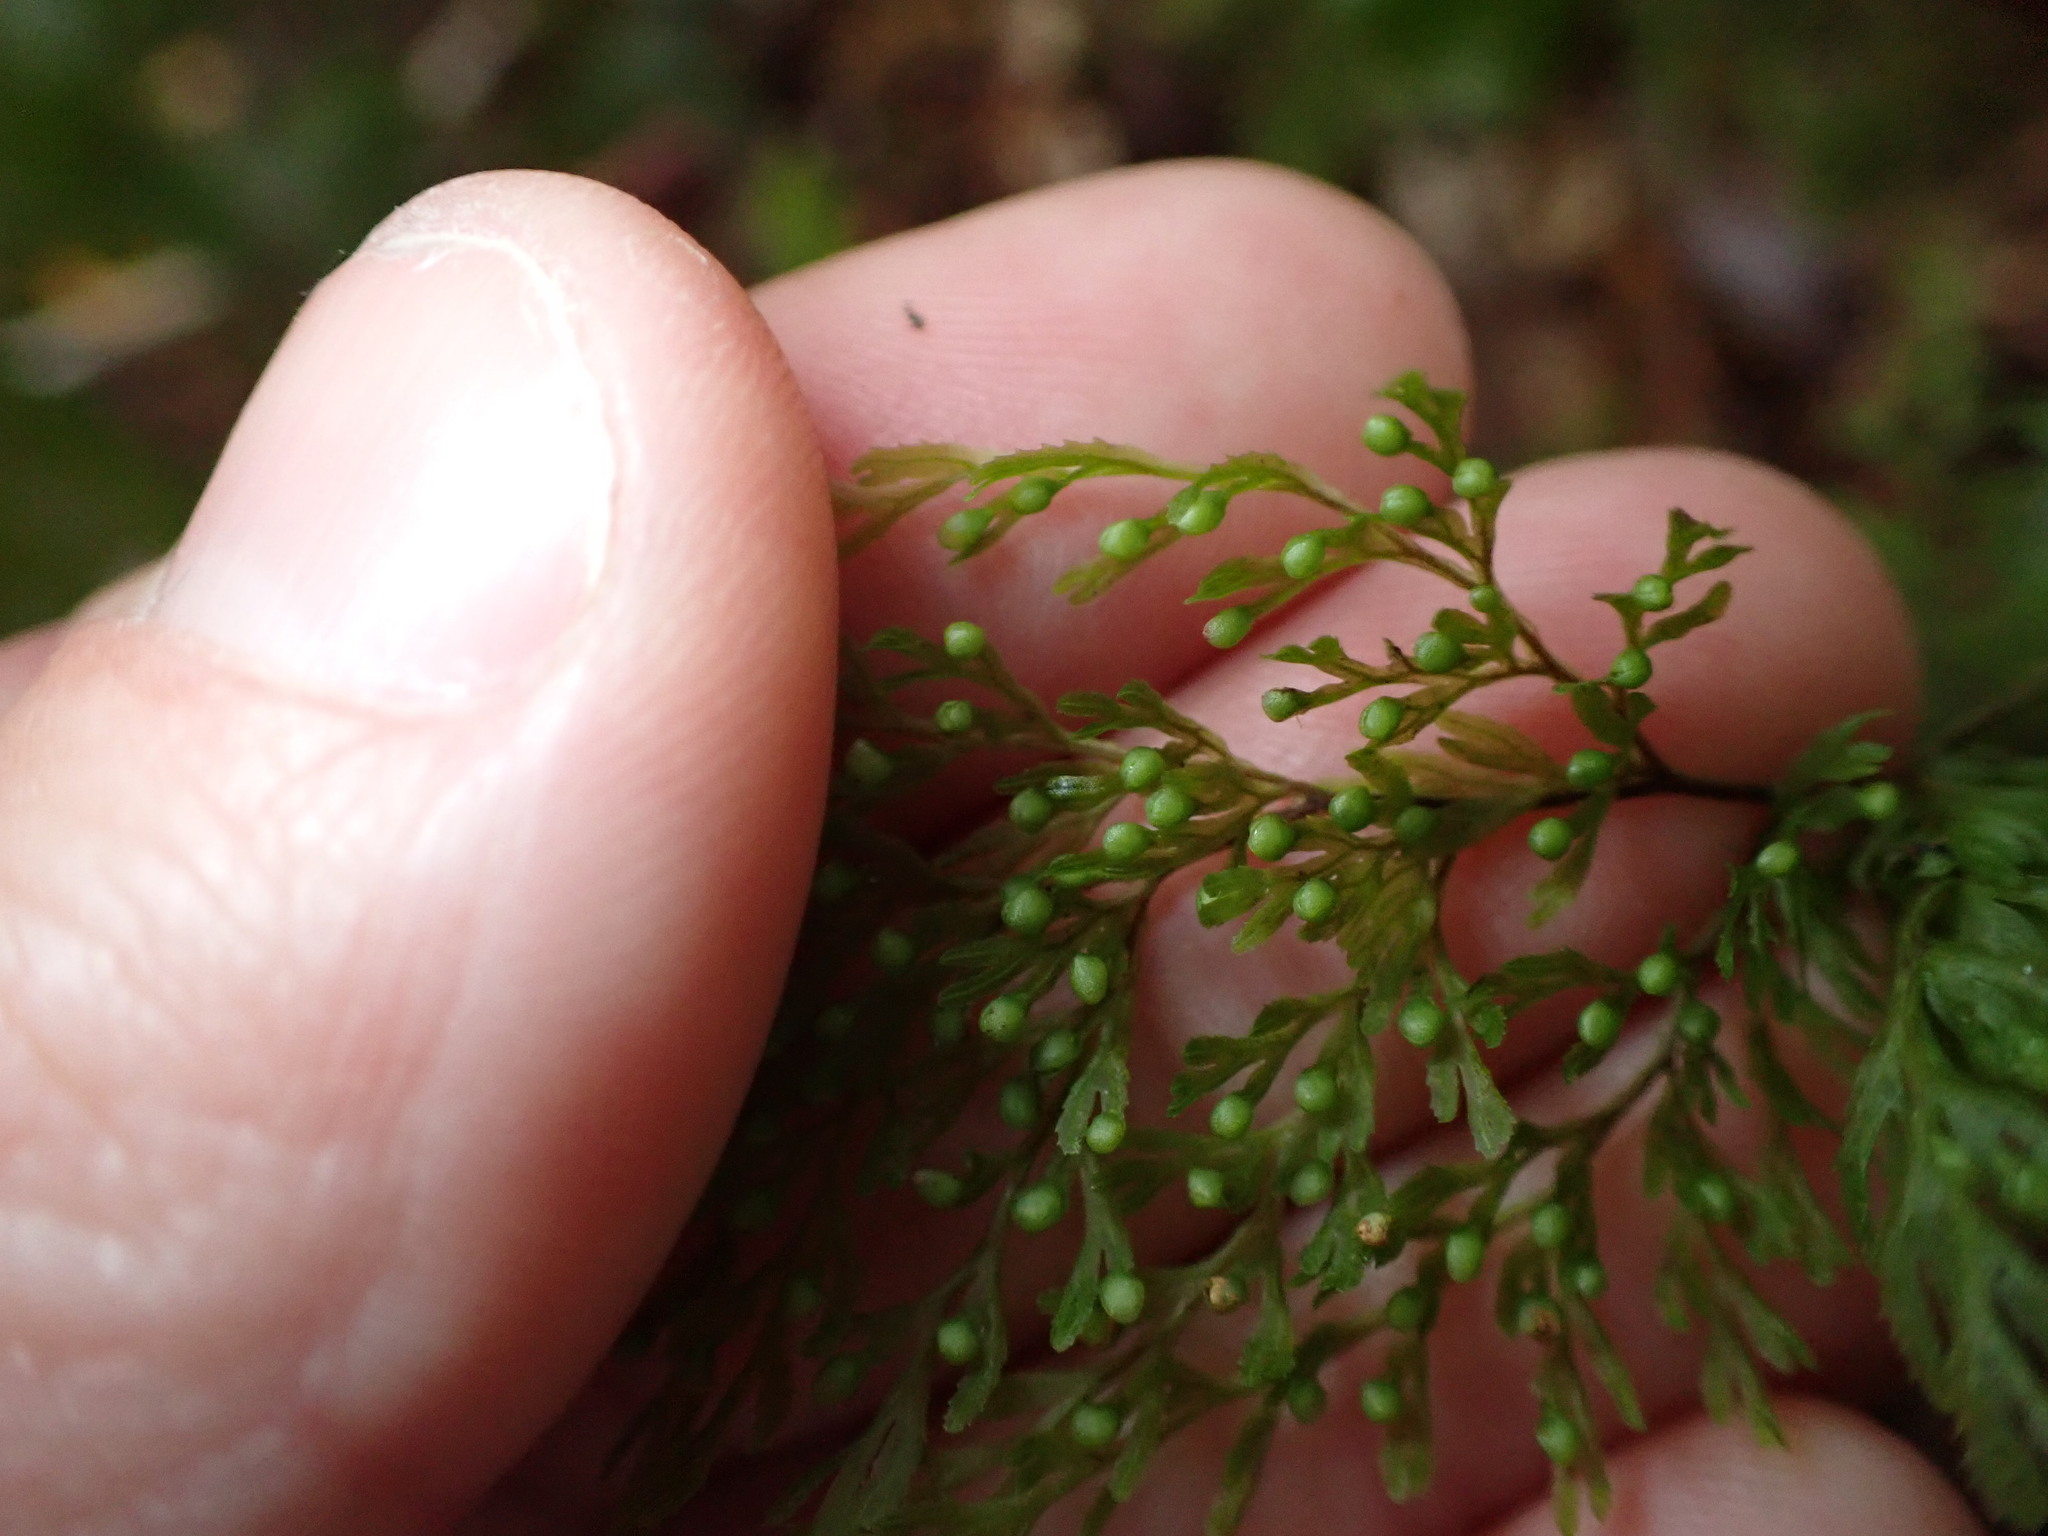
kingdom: Plantae
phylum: Tracheophyta
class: Polypodiopsida
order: Hymenophyllales
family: Hymenophyllaceae
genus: Hymenophyllum
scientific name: Hymenophyllum demissum
